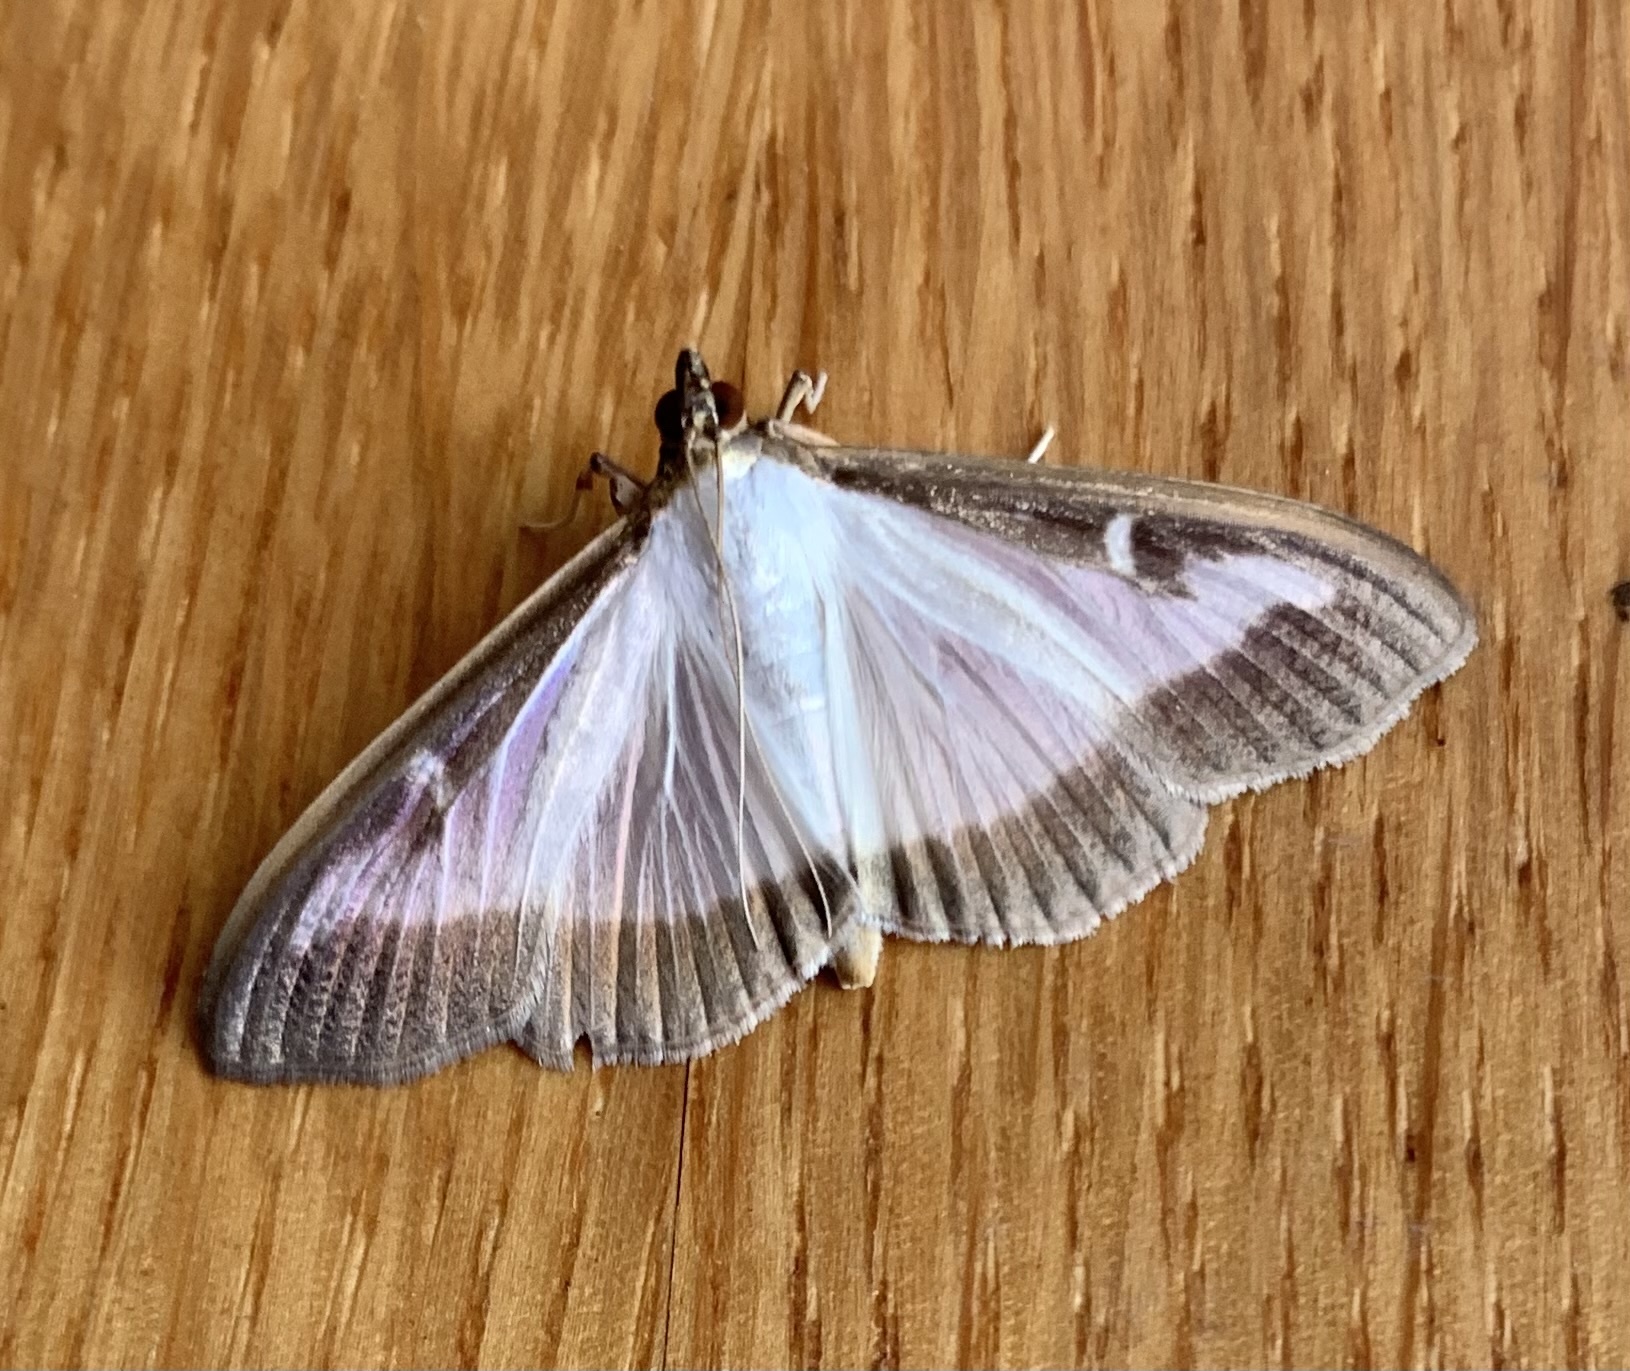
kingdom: Animalia
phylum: Arthropoda
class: Insecta
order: Lepidoptera
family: Crambidae
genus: Cydalima
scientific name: Cydalima perspectalis
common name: Box tree moth
